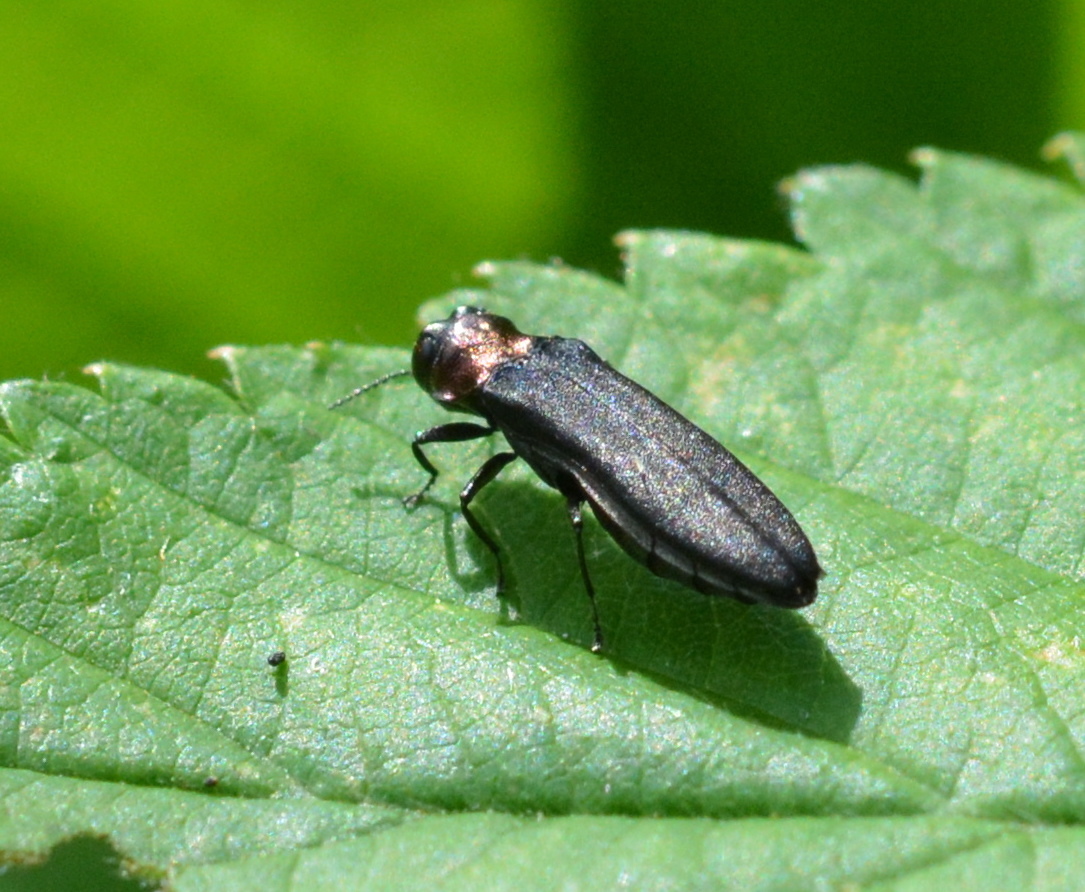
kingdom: Animalia
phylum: Arthropoda
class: Insecta
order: Coleoptera
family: Buprestidae
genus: Agrilus
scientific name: Agrilus ruficollis
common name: Red-necked cane borer beetle
